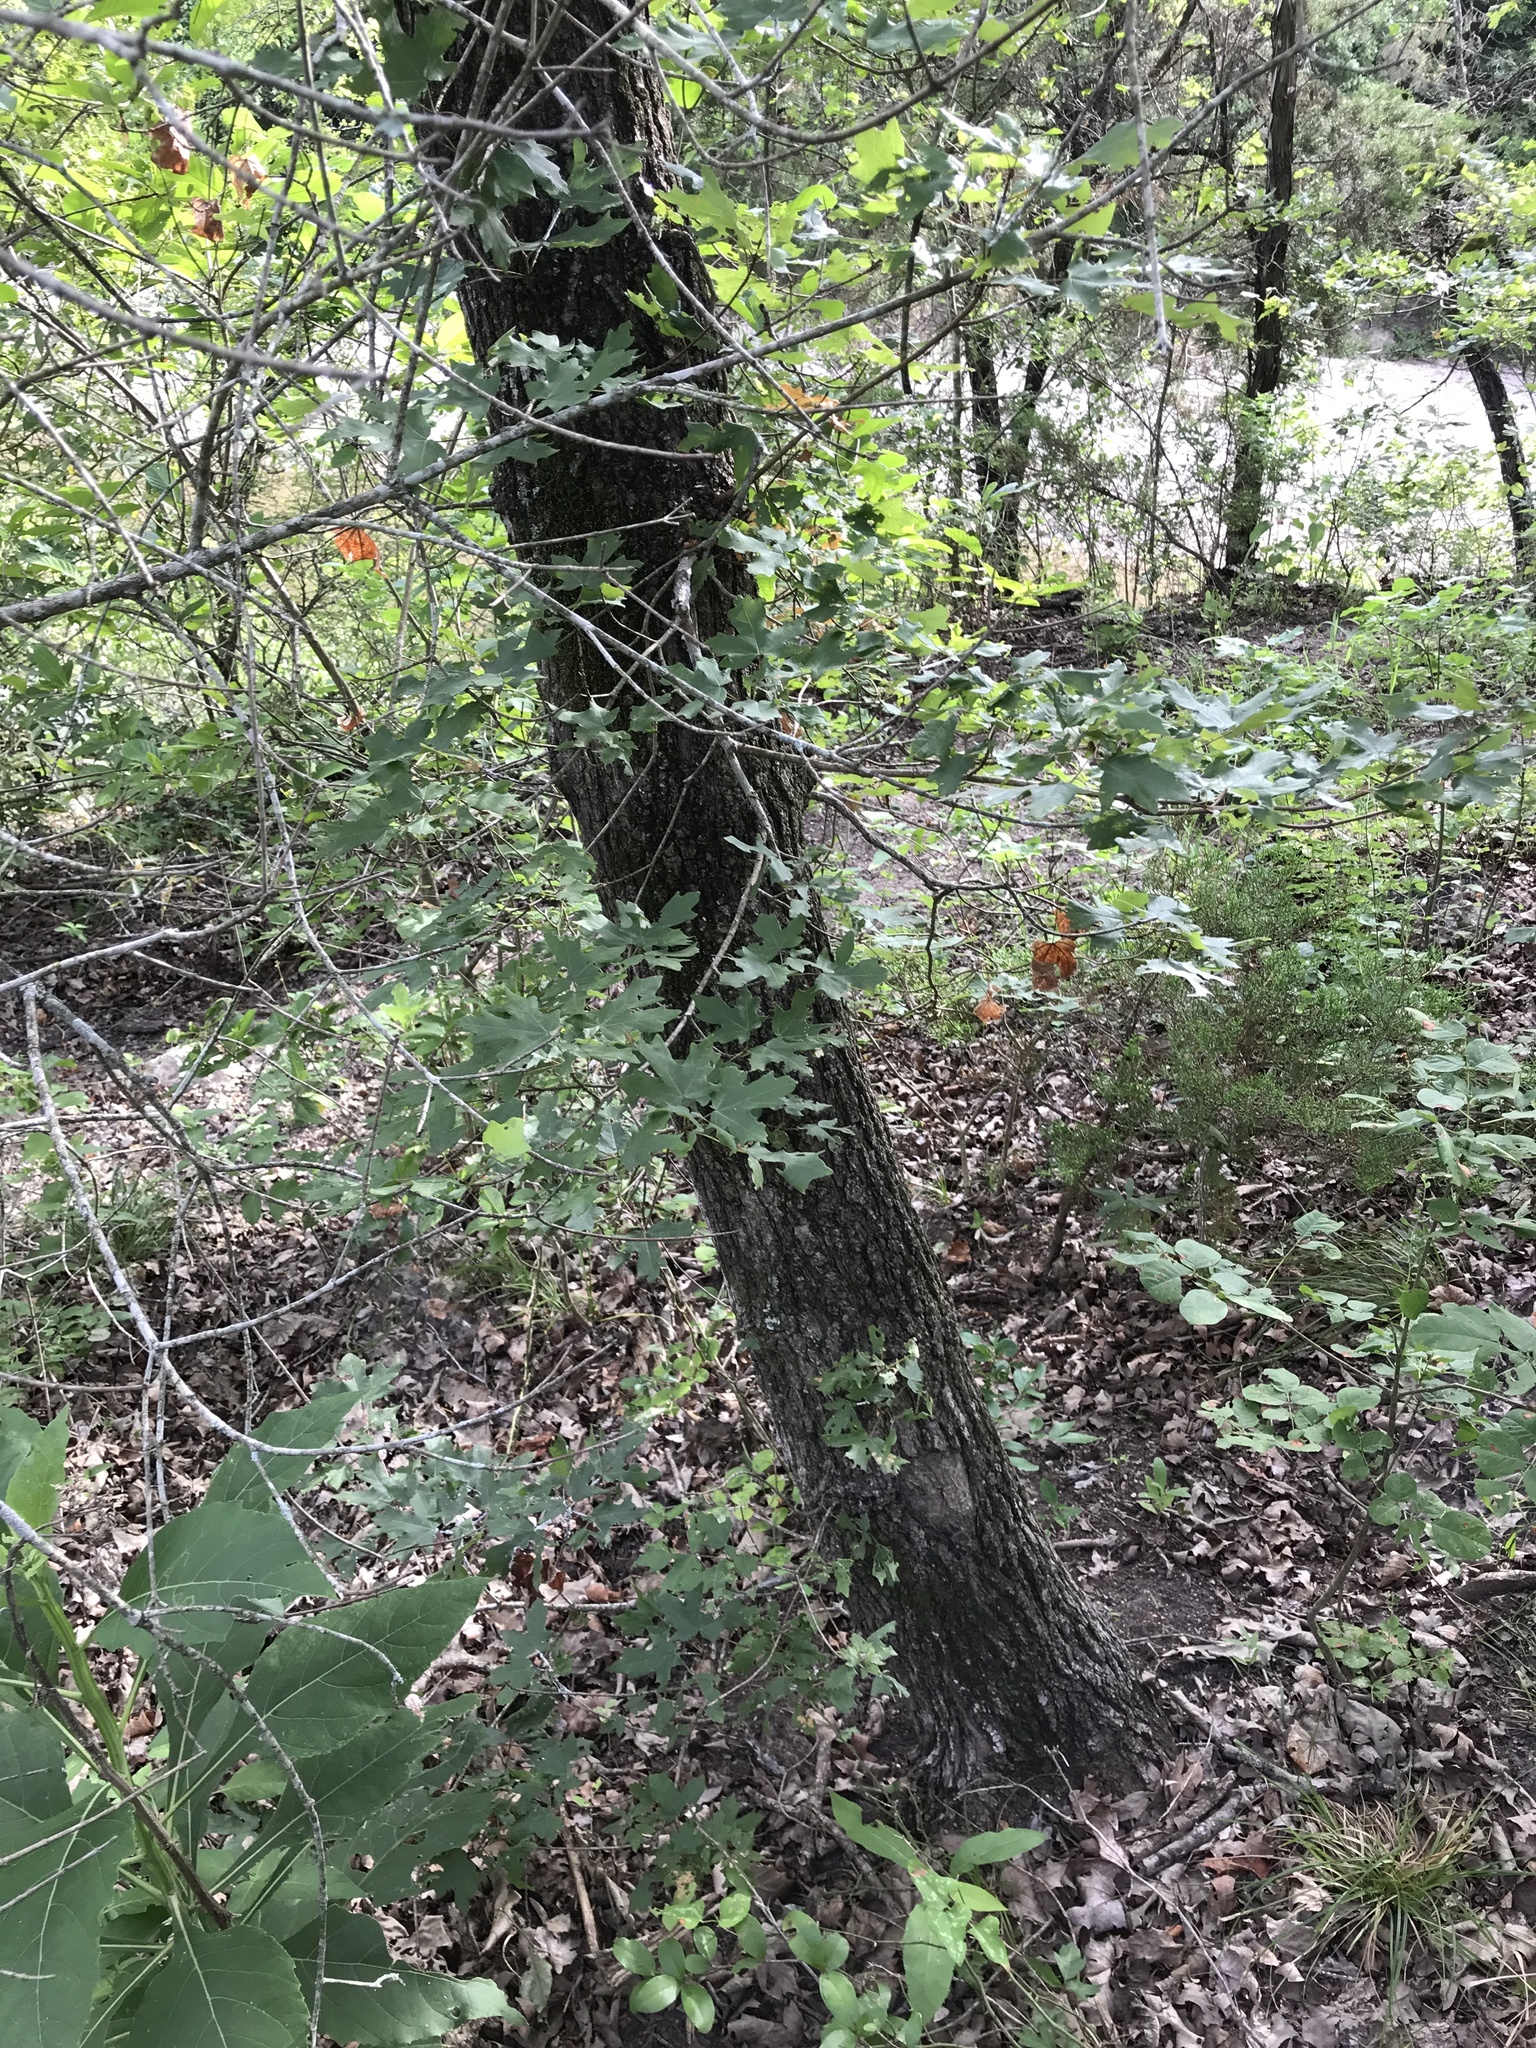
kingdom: Plantae
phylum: Tracheophyta
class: Magnoliopsida
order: Sapindales
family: Sapindaceae
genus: Acer
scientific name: Acer grandidentatum
